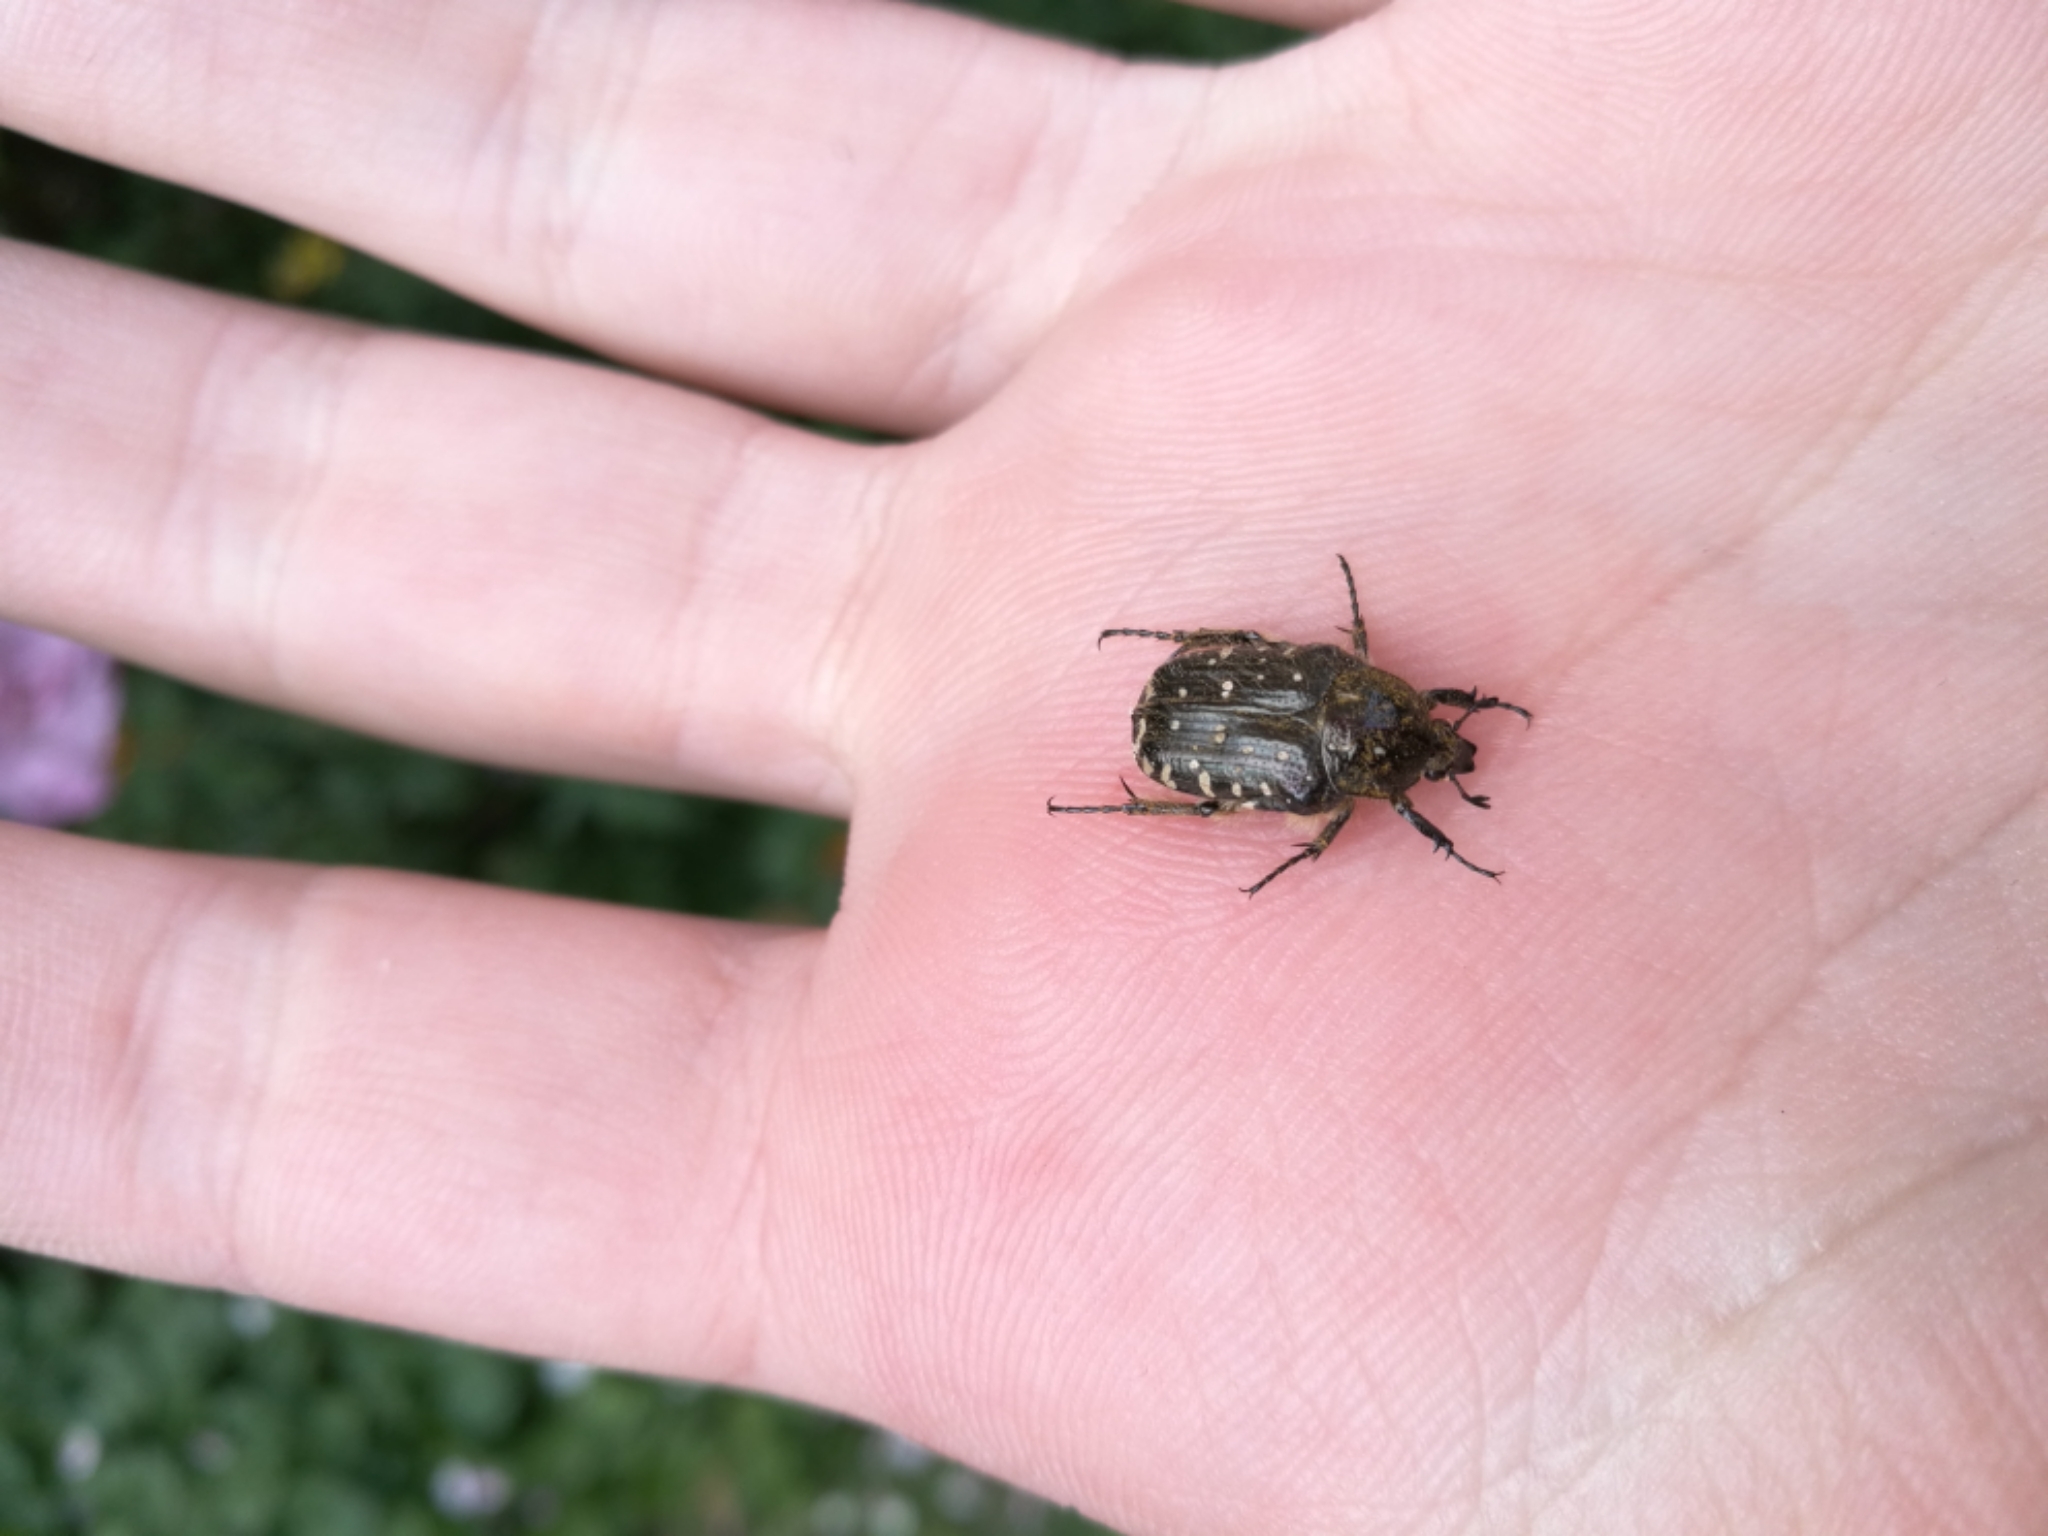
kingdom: Animalia
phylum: Arthropoda
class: Insecta
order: Coleoptera
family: Scarabaeidae
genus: Oxythyrea
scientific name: Oxythyrea funesta
